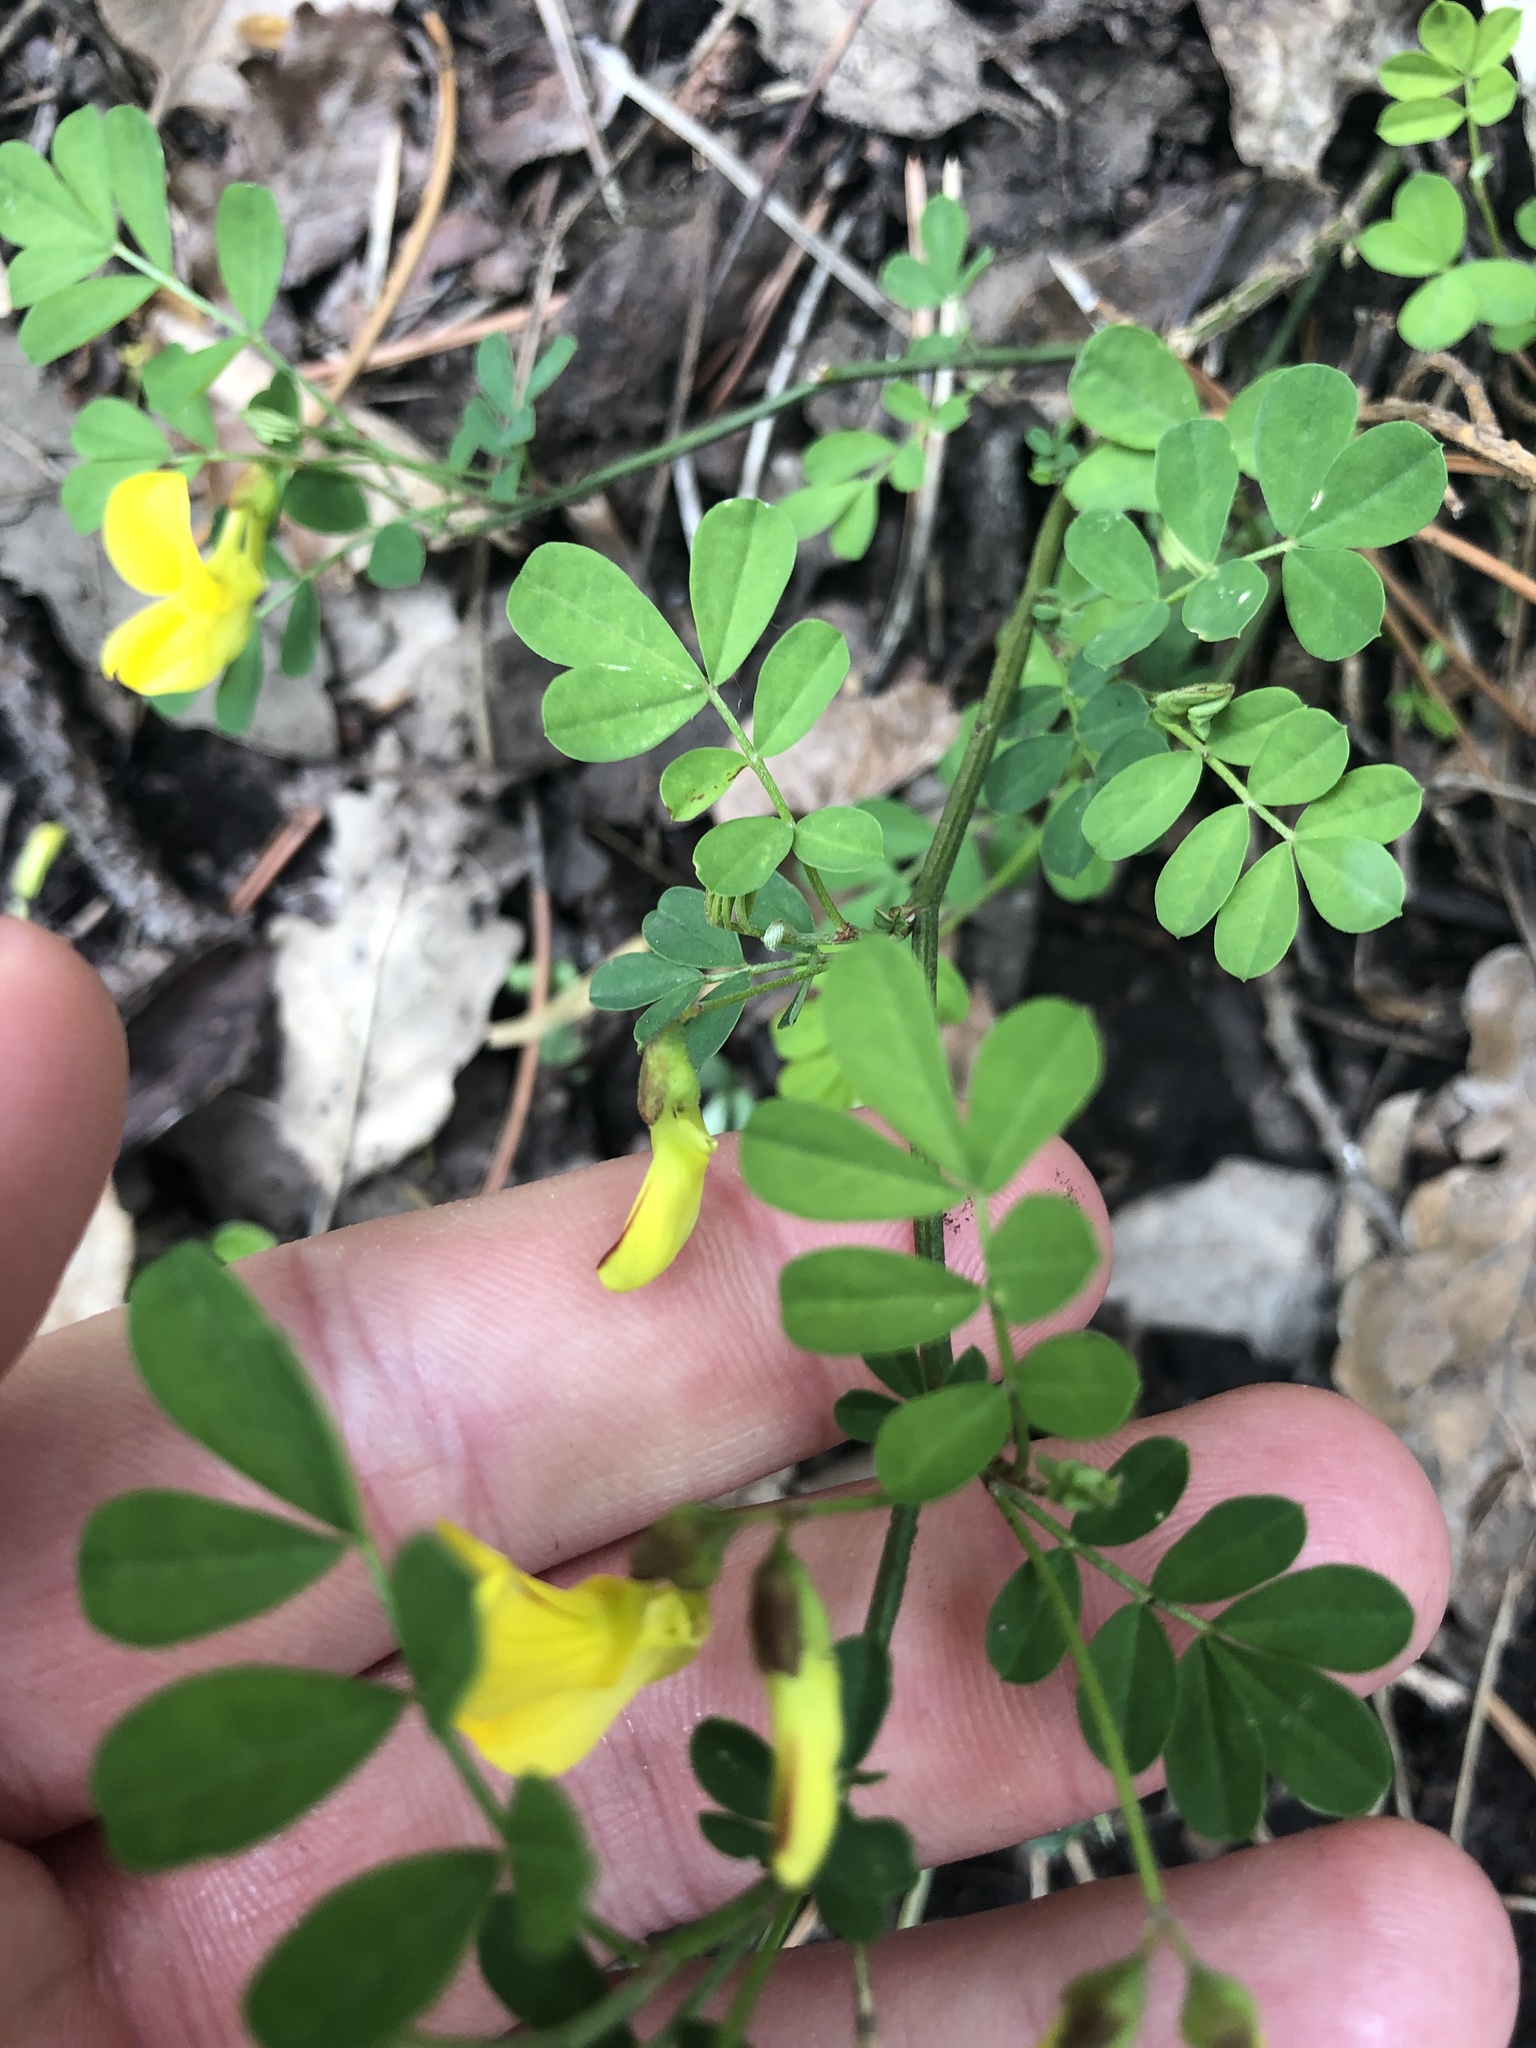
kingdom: Plantae
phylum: Tracheophyta
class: Magnoliopsida
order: Fabales
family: Fabaceae
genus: Hippocrepis
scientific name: Hippocrepis emerus
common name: Scorpion senna
